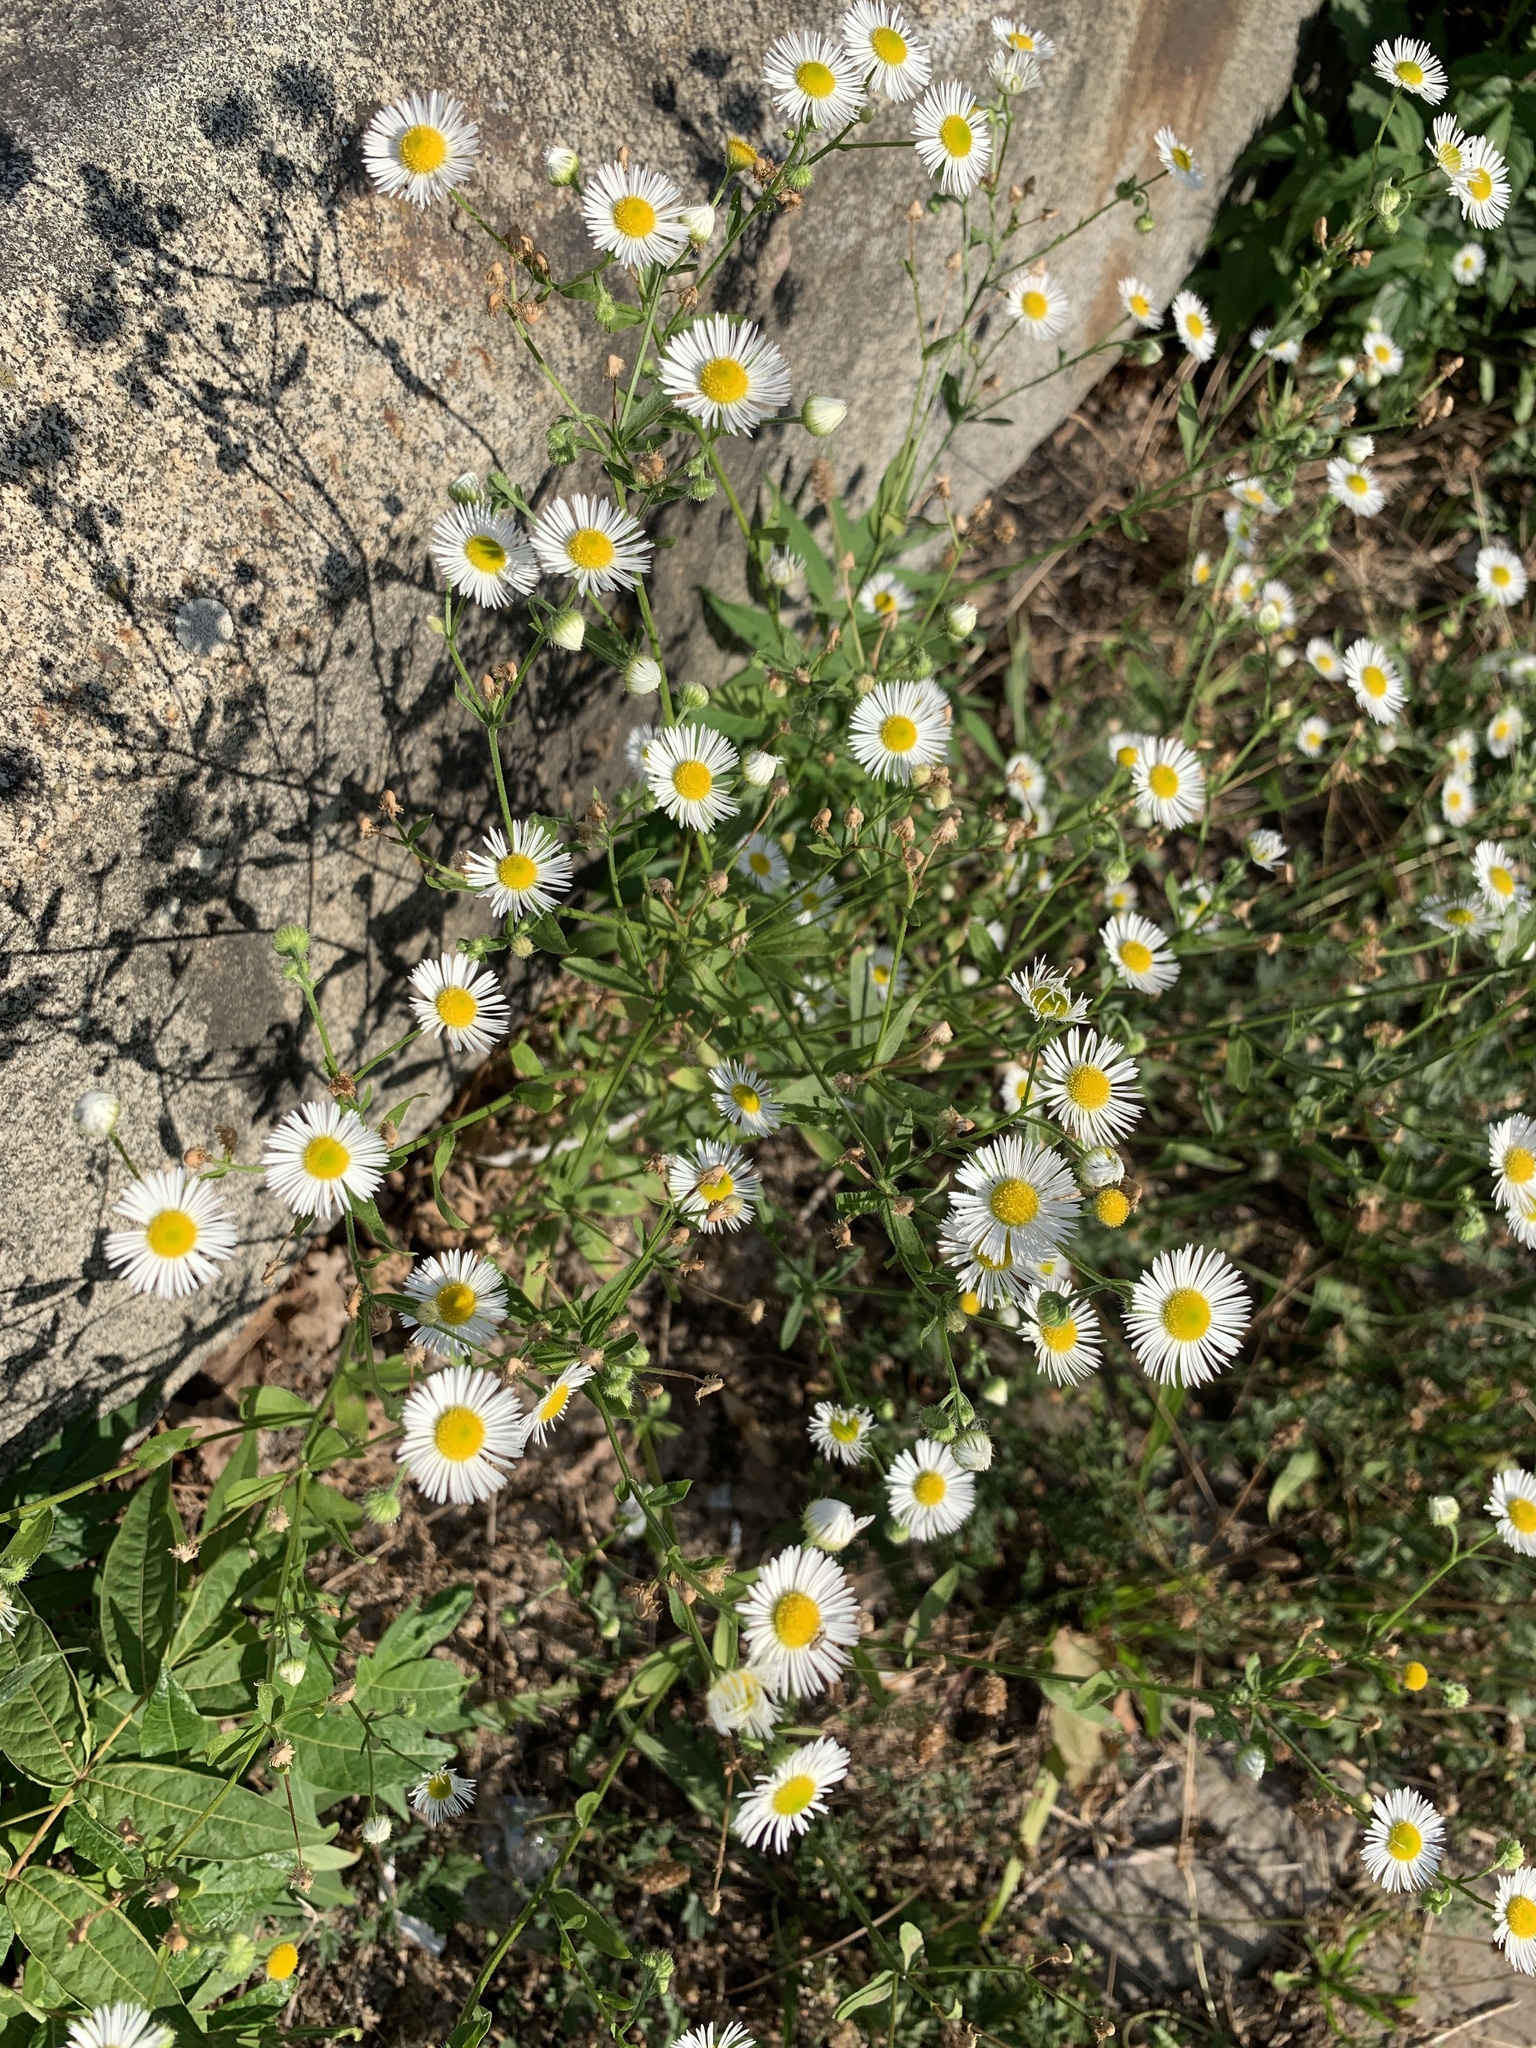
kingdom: Plantae
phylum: Tracheophyta
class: Magnoliopsida
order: Asterales
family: Asteraceae
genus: Erigeron
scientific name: Erigeron annuus
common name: Tall fleabane
